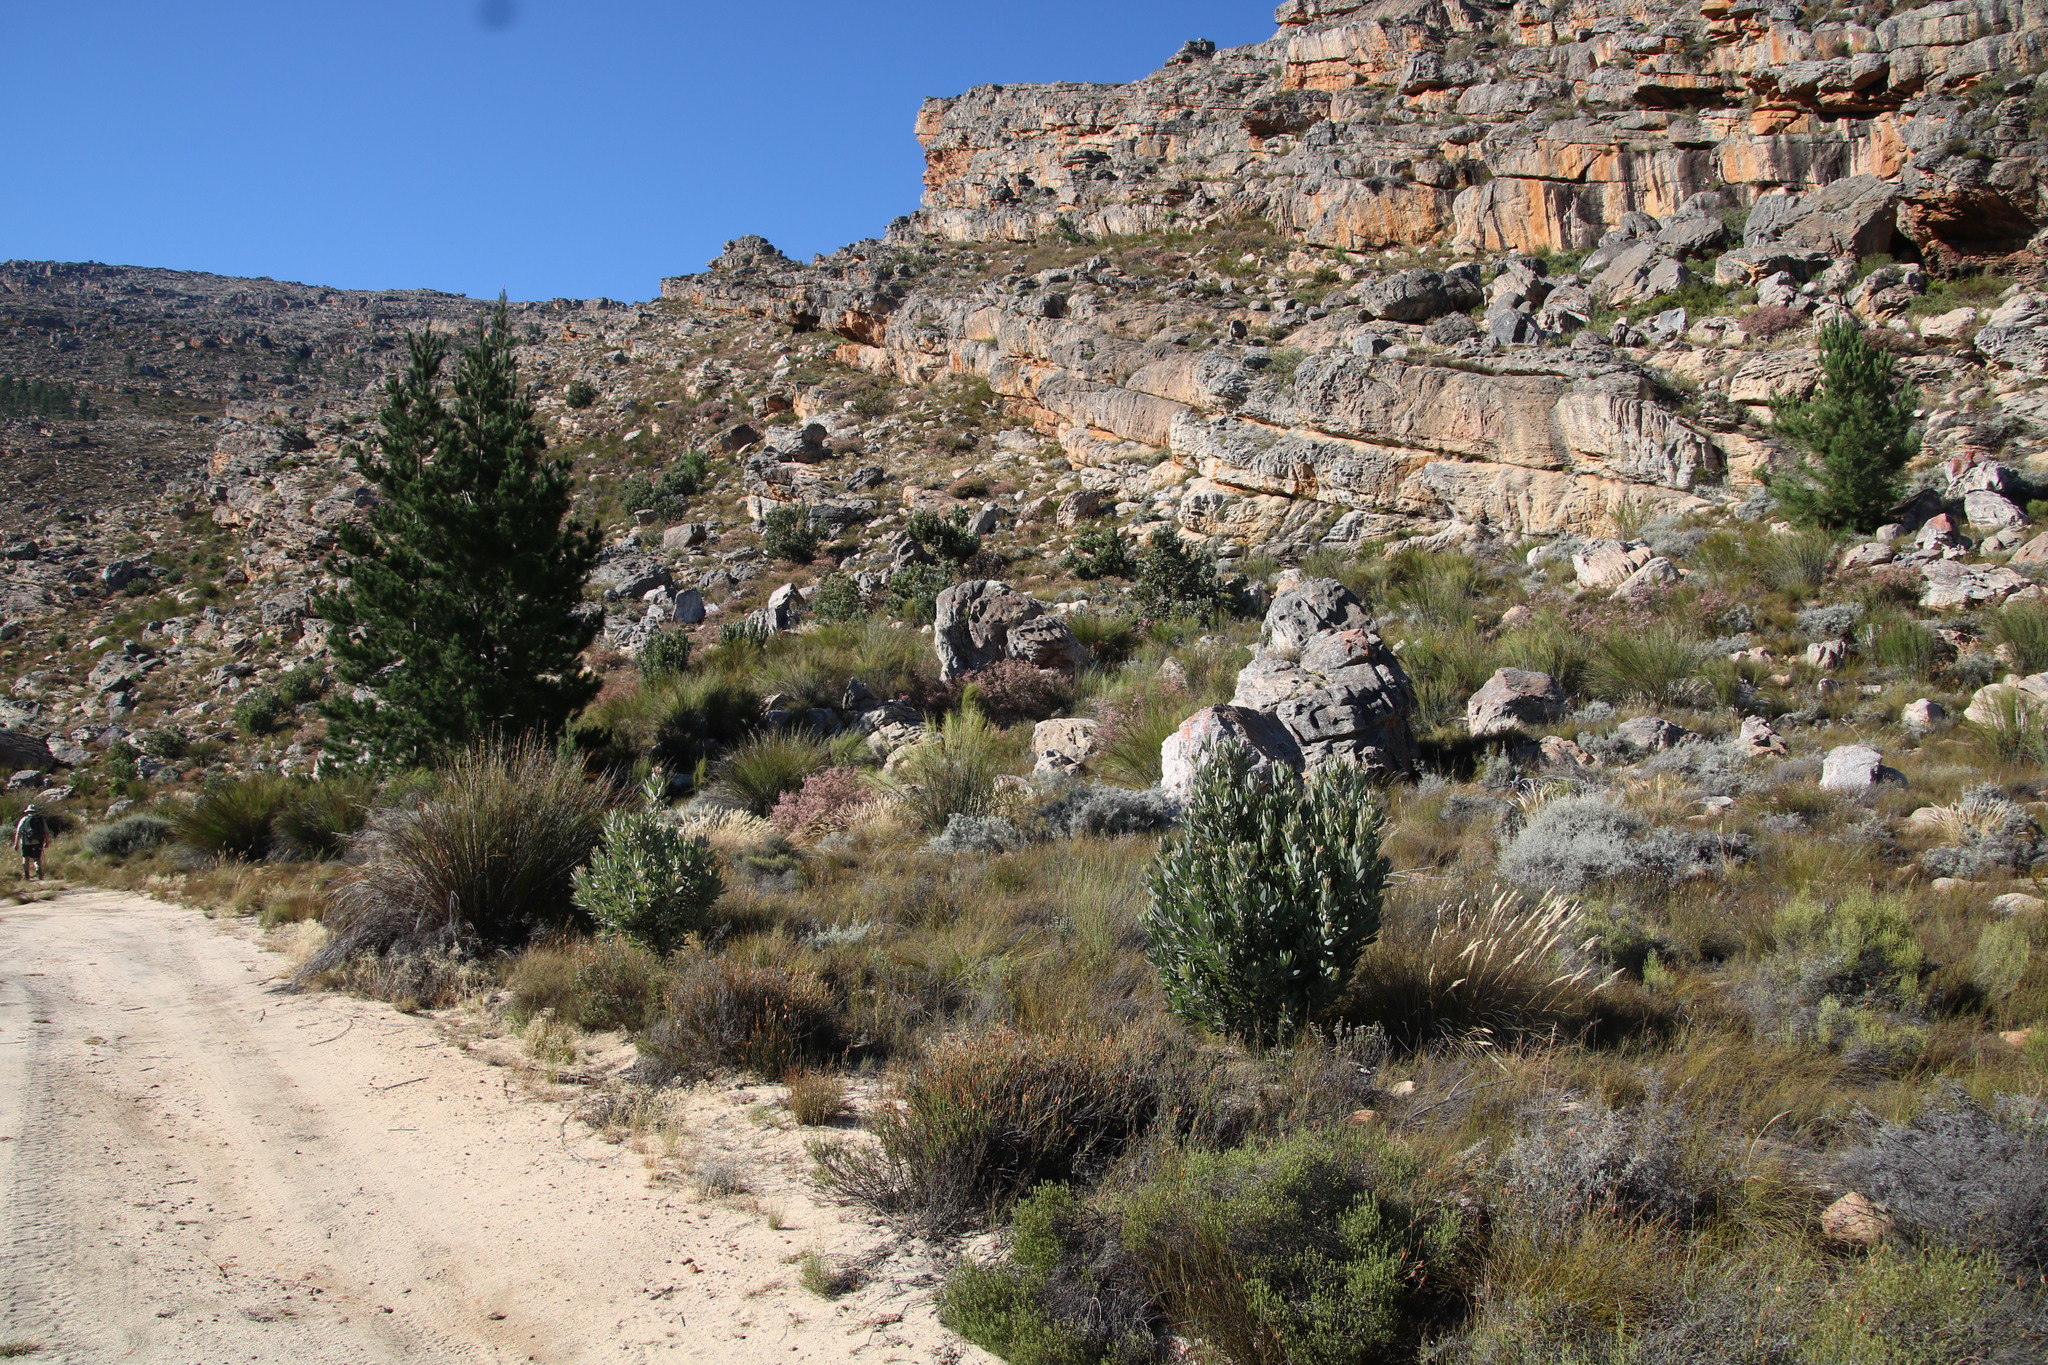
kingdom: Plantae
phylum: Tracheophyta
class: Magnoliopsida
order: Proteales
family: Proteaceae
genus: Protea
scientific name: Protea laurifolia
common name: Grey-leaf sugarbsh
